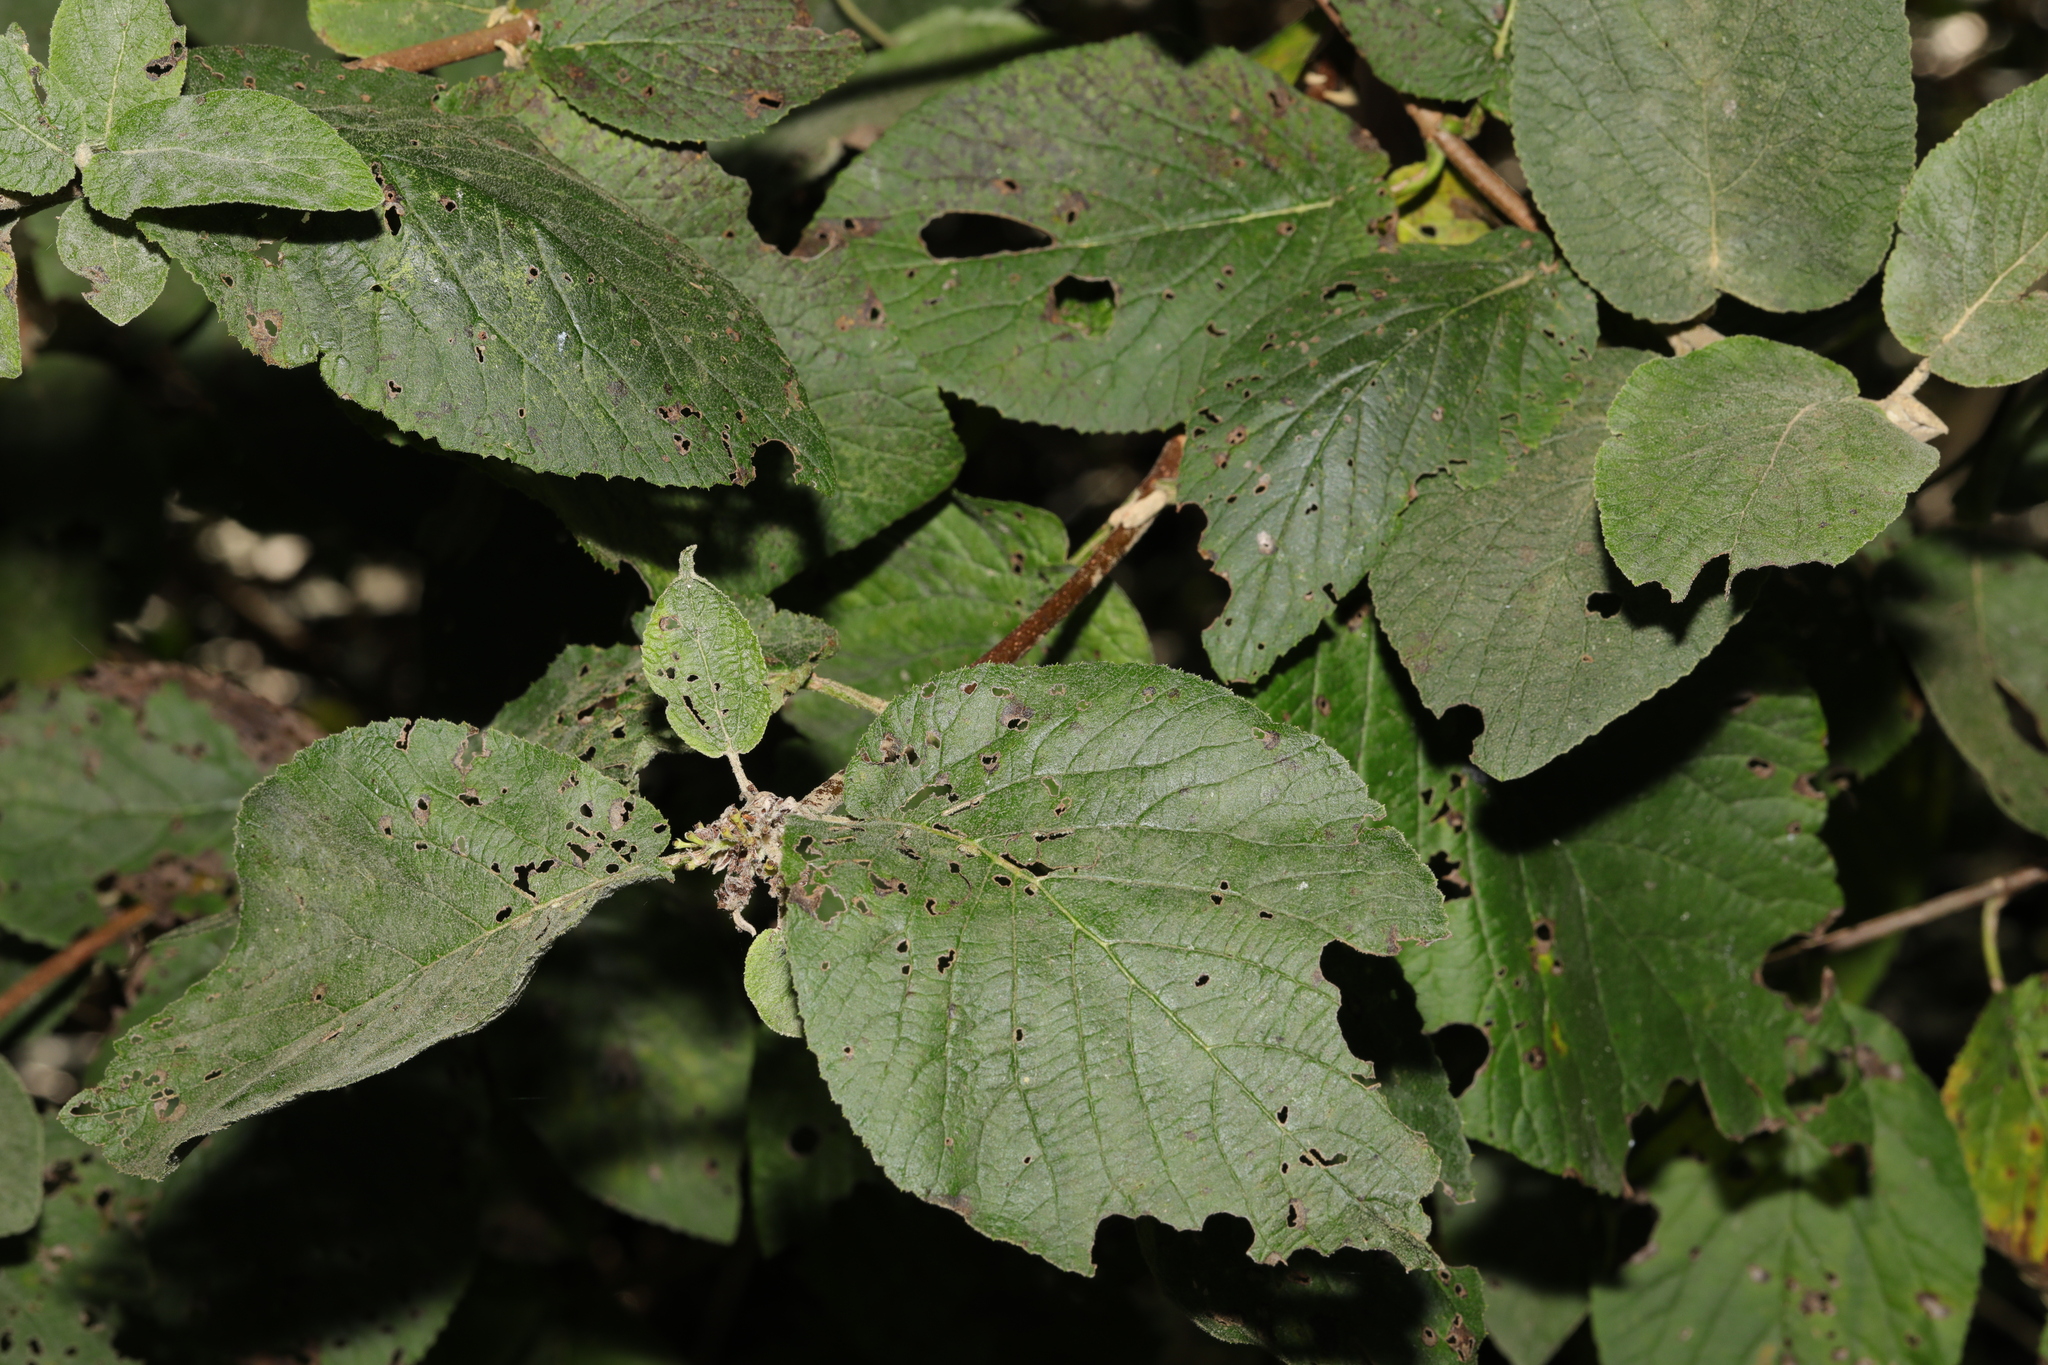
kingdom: Plantae
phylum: Tracheophyta
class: Magnoliopsida
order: Dipsacales
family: Viburnaceae
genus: Viburnum
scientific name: Viburnum lantana
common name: Wayfaring tree
